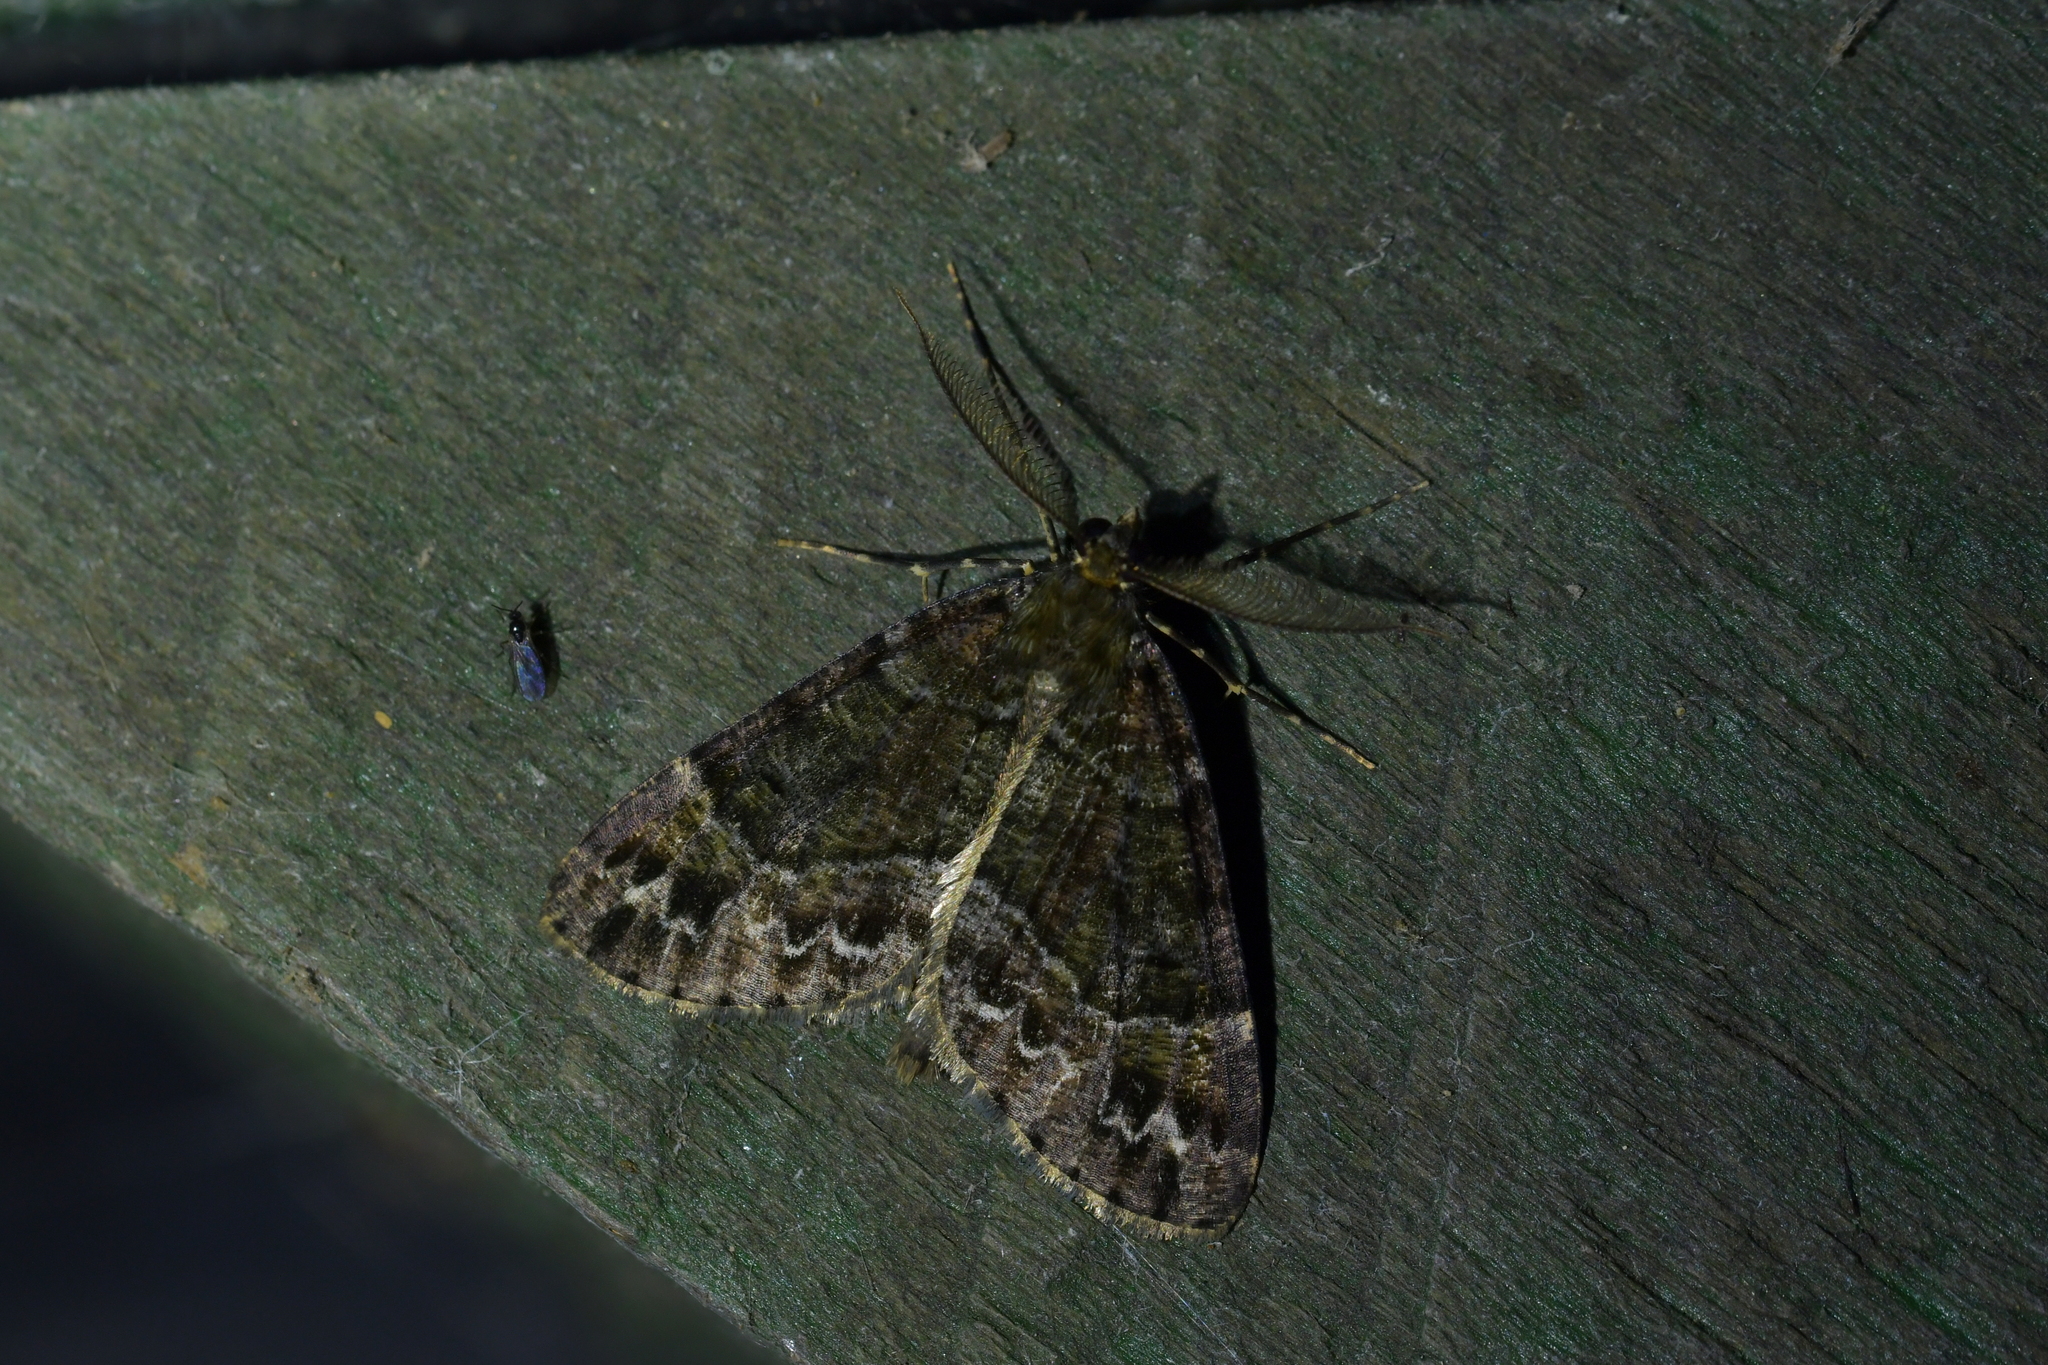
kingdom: Animalia
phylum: Arthropoda
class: Insecta
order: Lepidoptera
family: Geometridae
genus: Pseudocoremia
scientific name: Pseudocoremia productata
